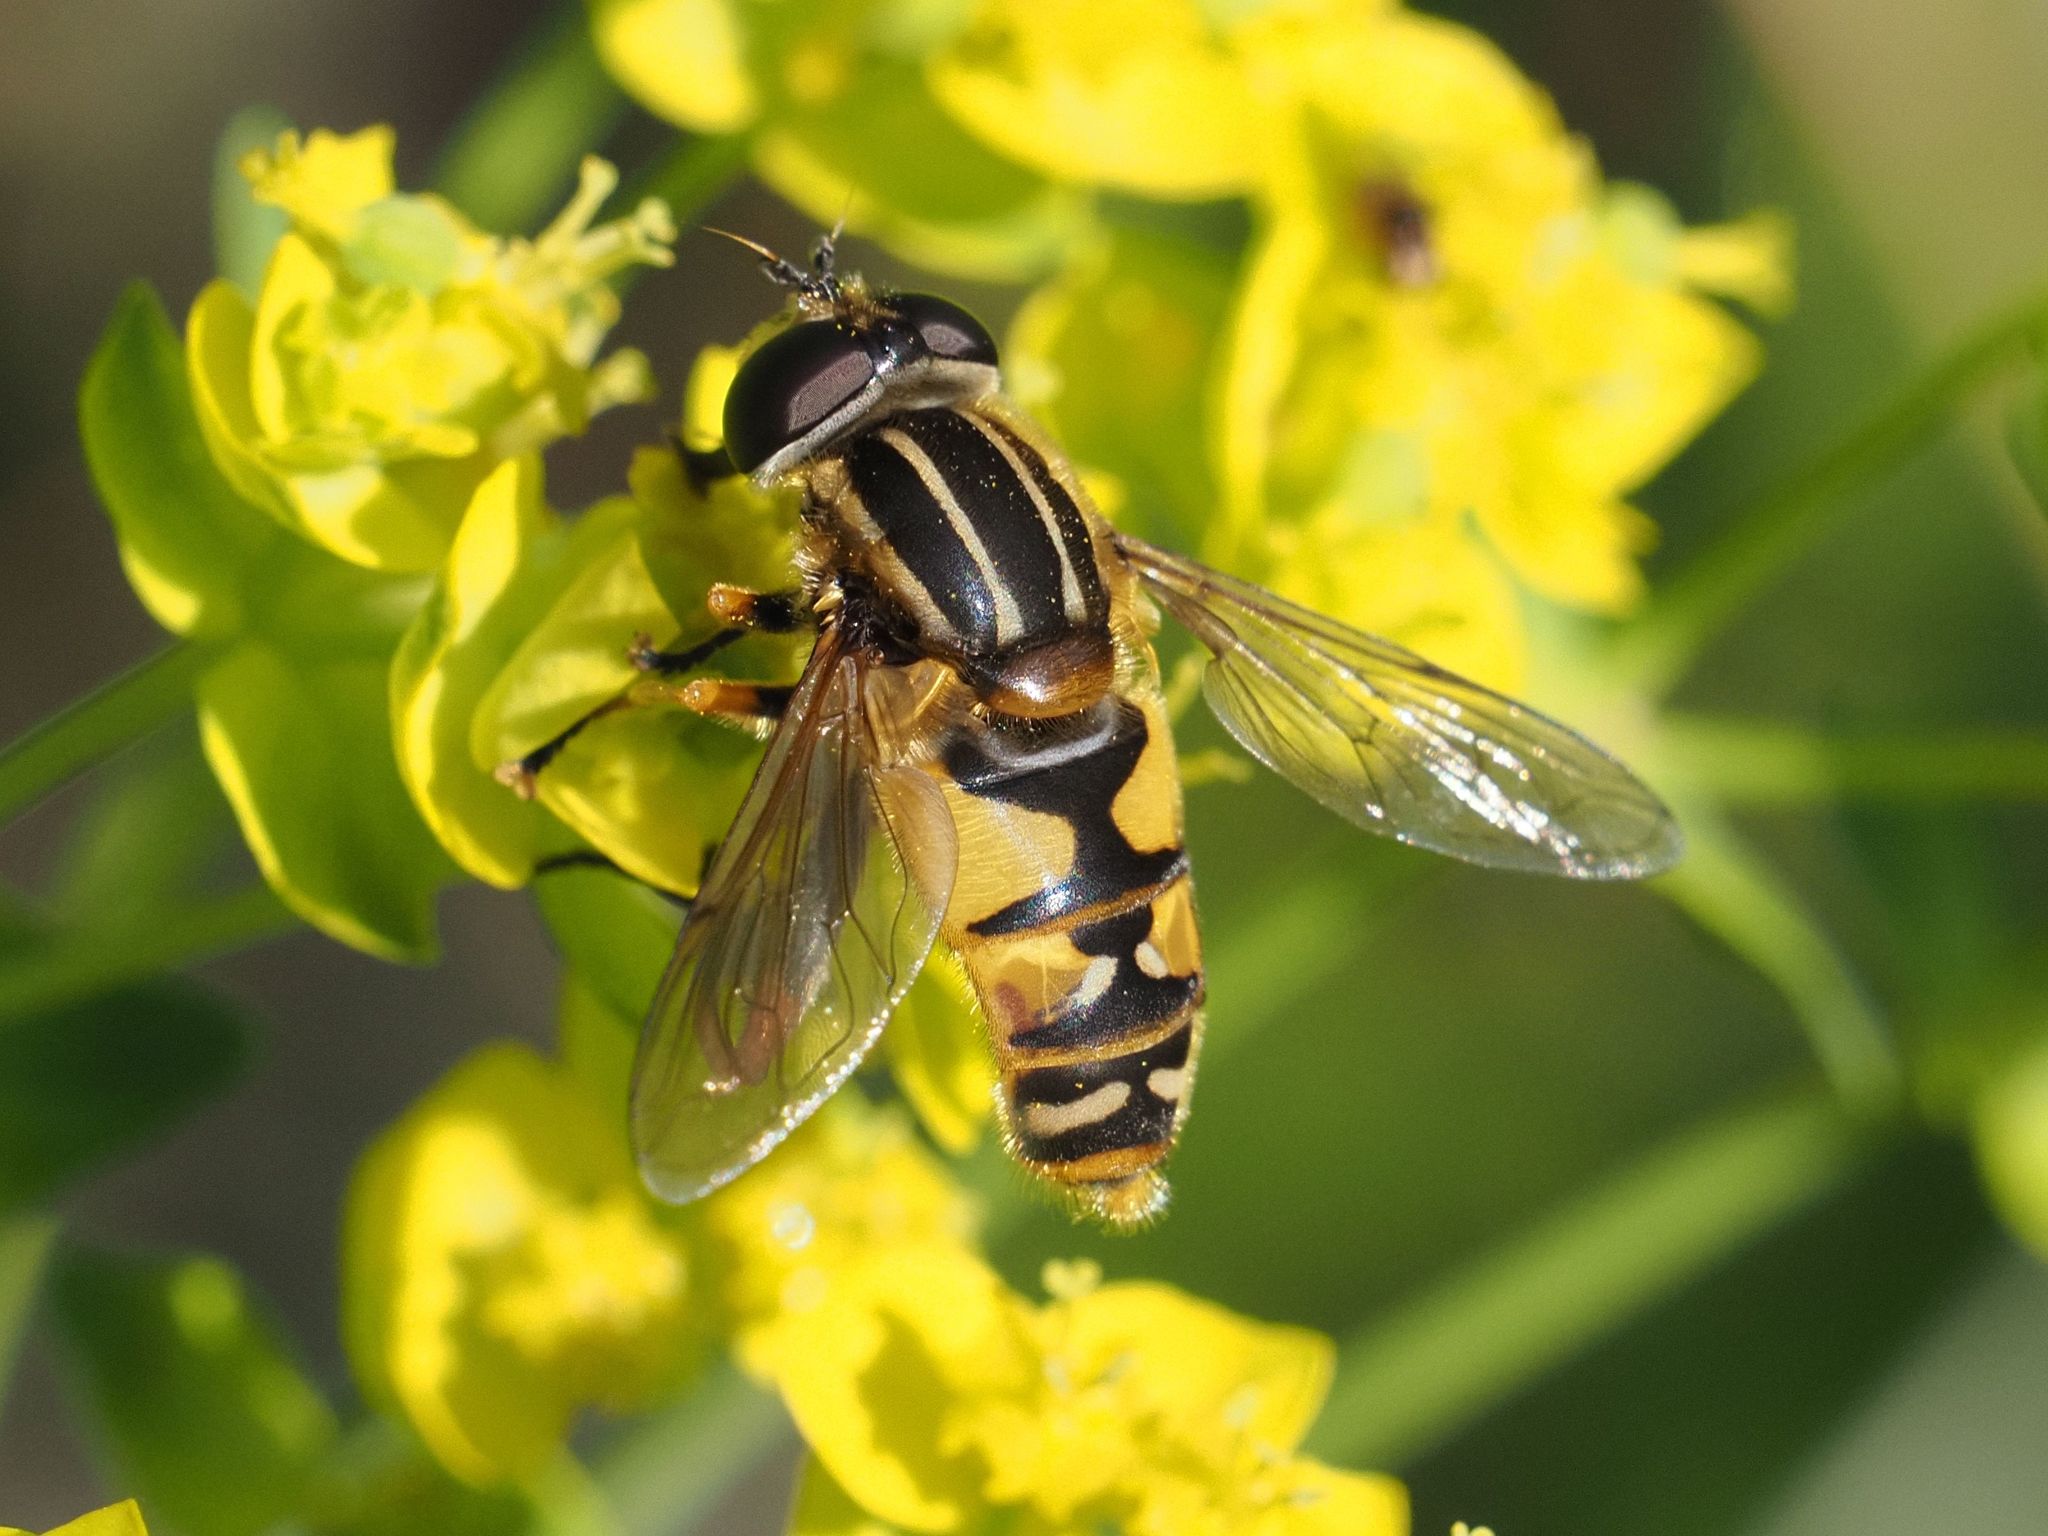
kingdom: Animalia
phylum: Arthropoda
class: Insecta
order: Diptera
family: Syrphidae
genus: Helophilus
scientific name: Helophilus pendulus
